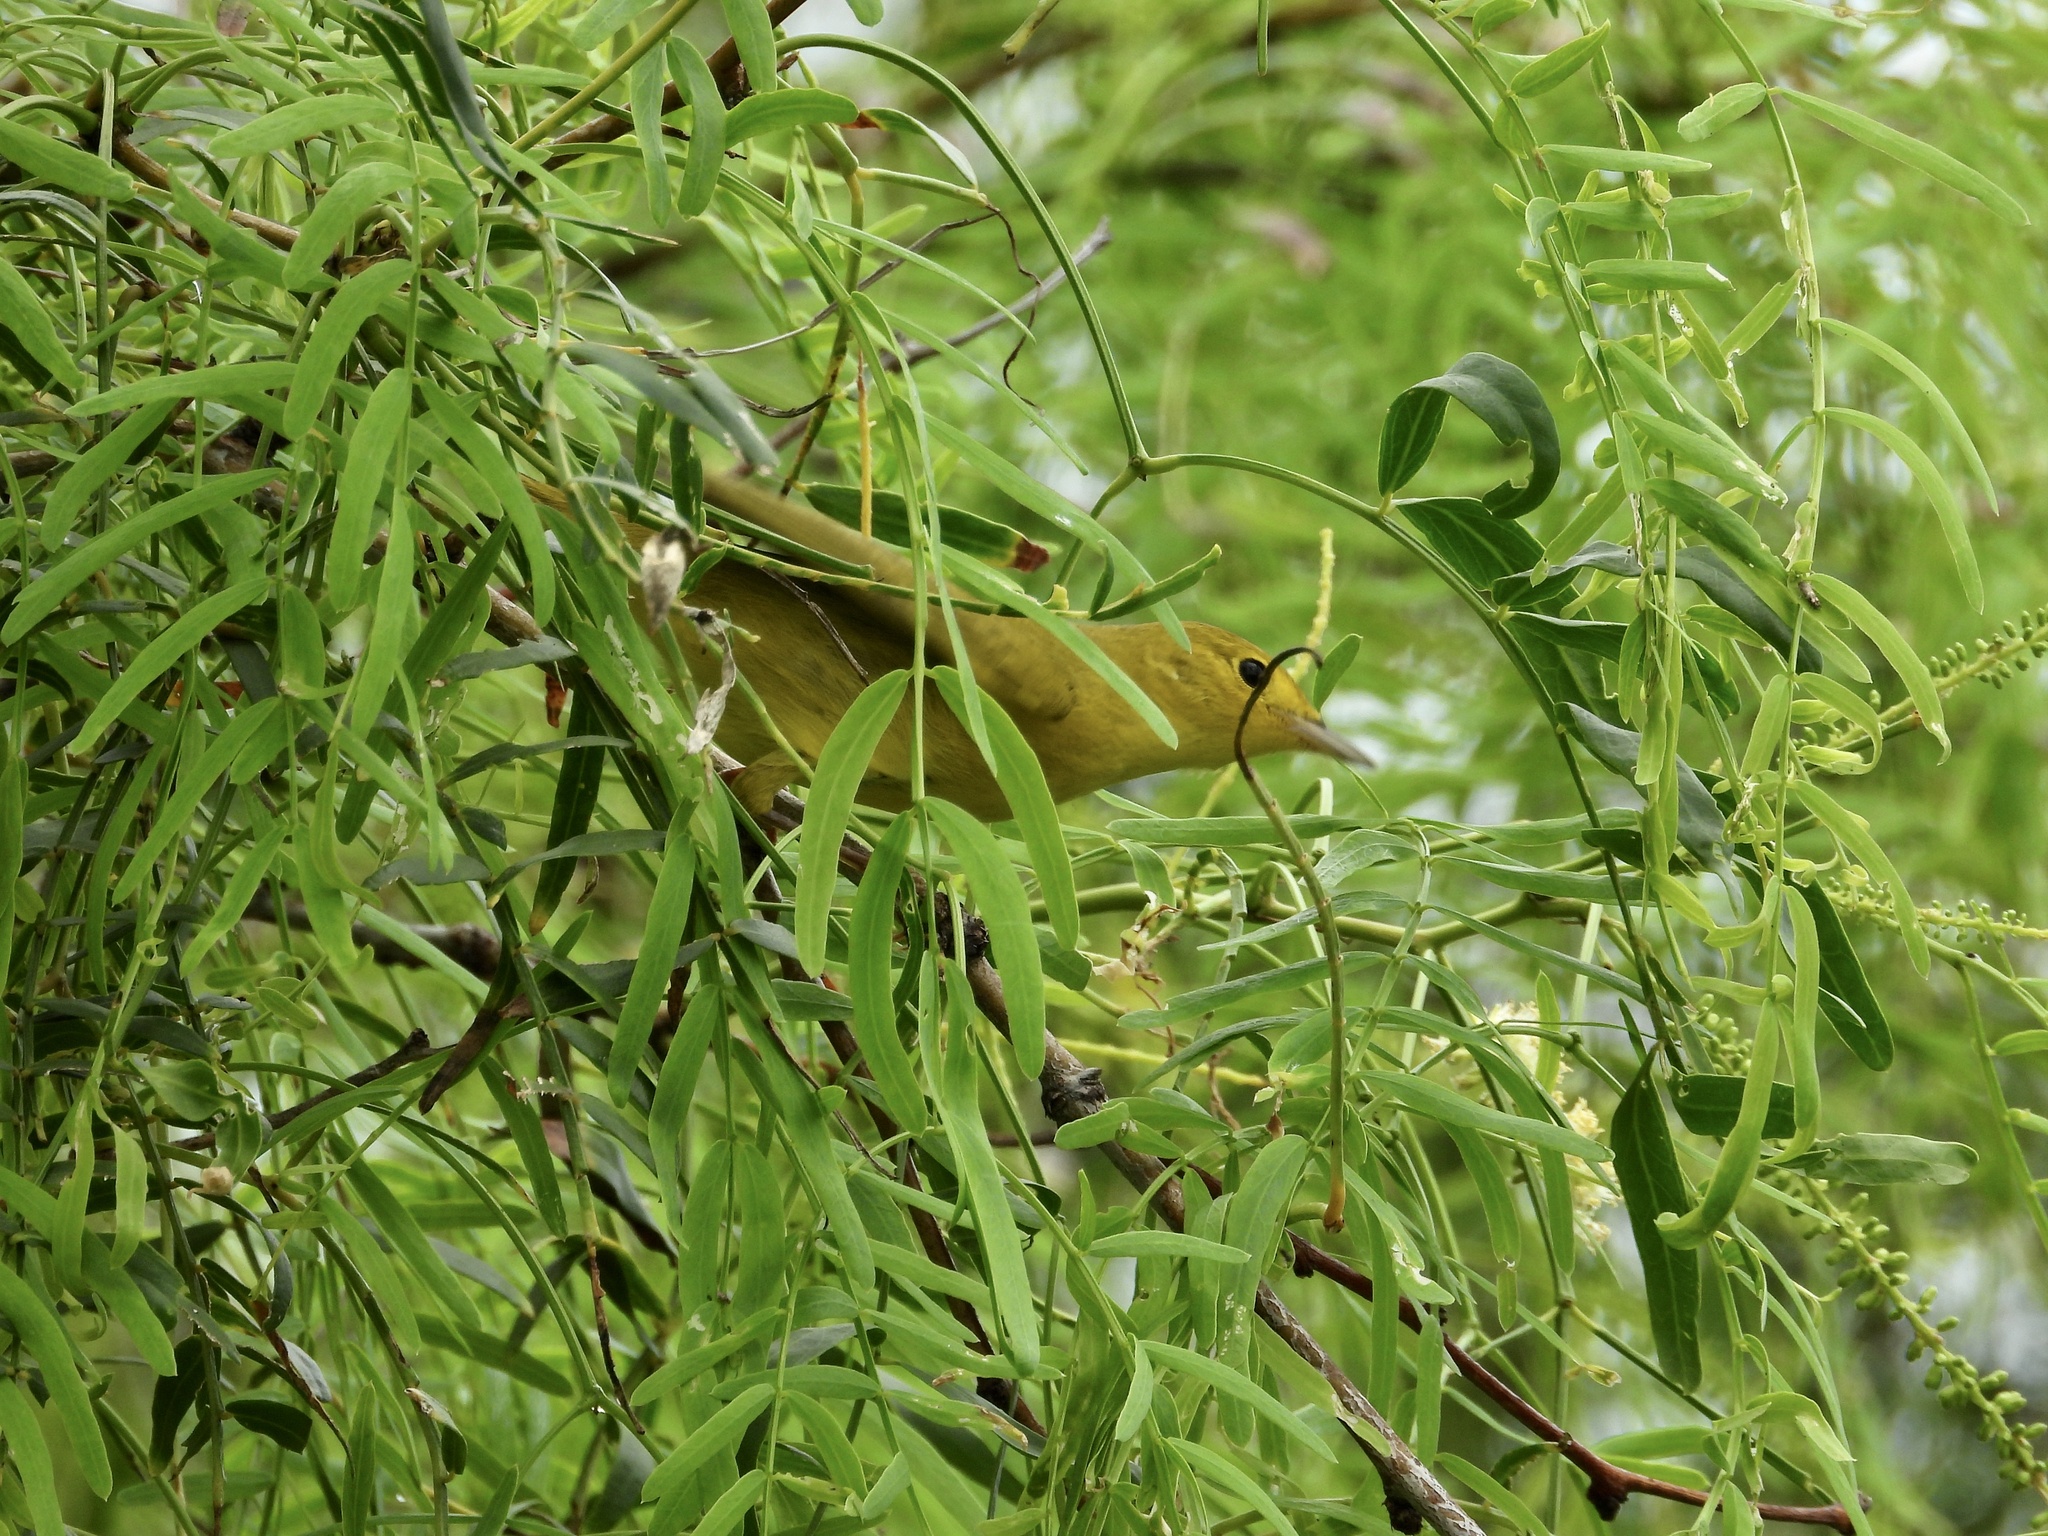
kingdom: Animalia
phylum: Chordata
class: Aves
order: Passeriformes
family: Parulidae
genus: Setophaga
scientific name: Setophaga petechia
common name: Yellow warbler
